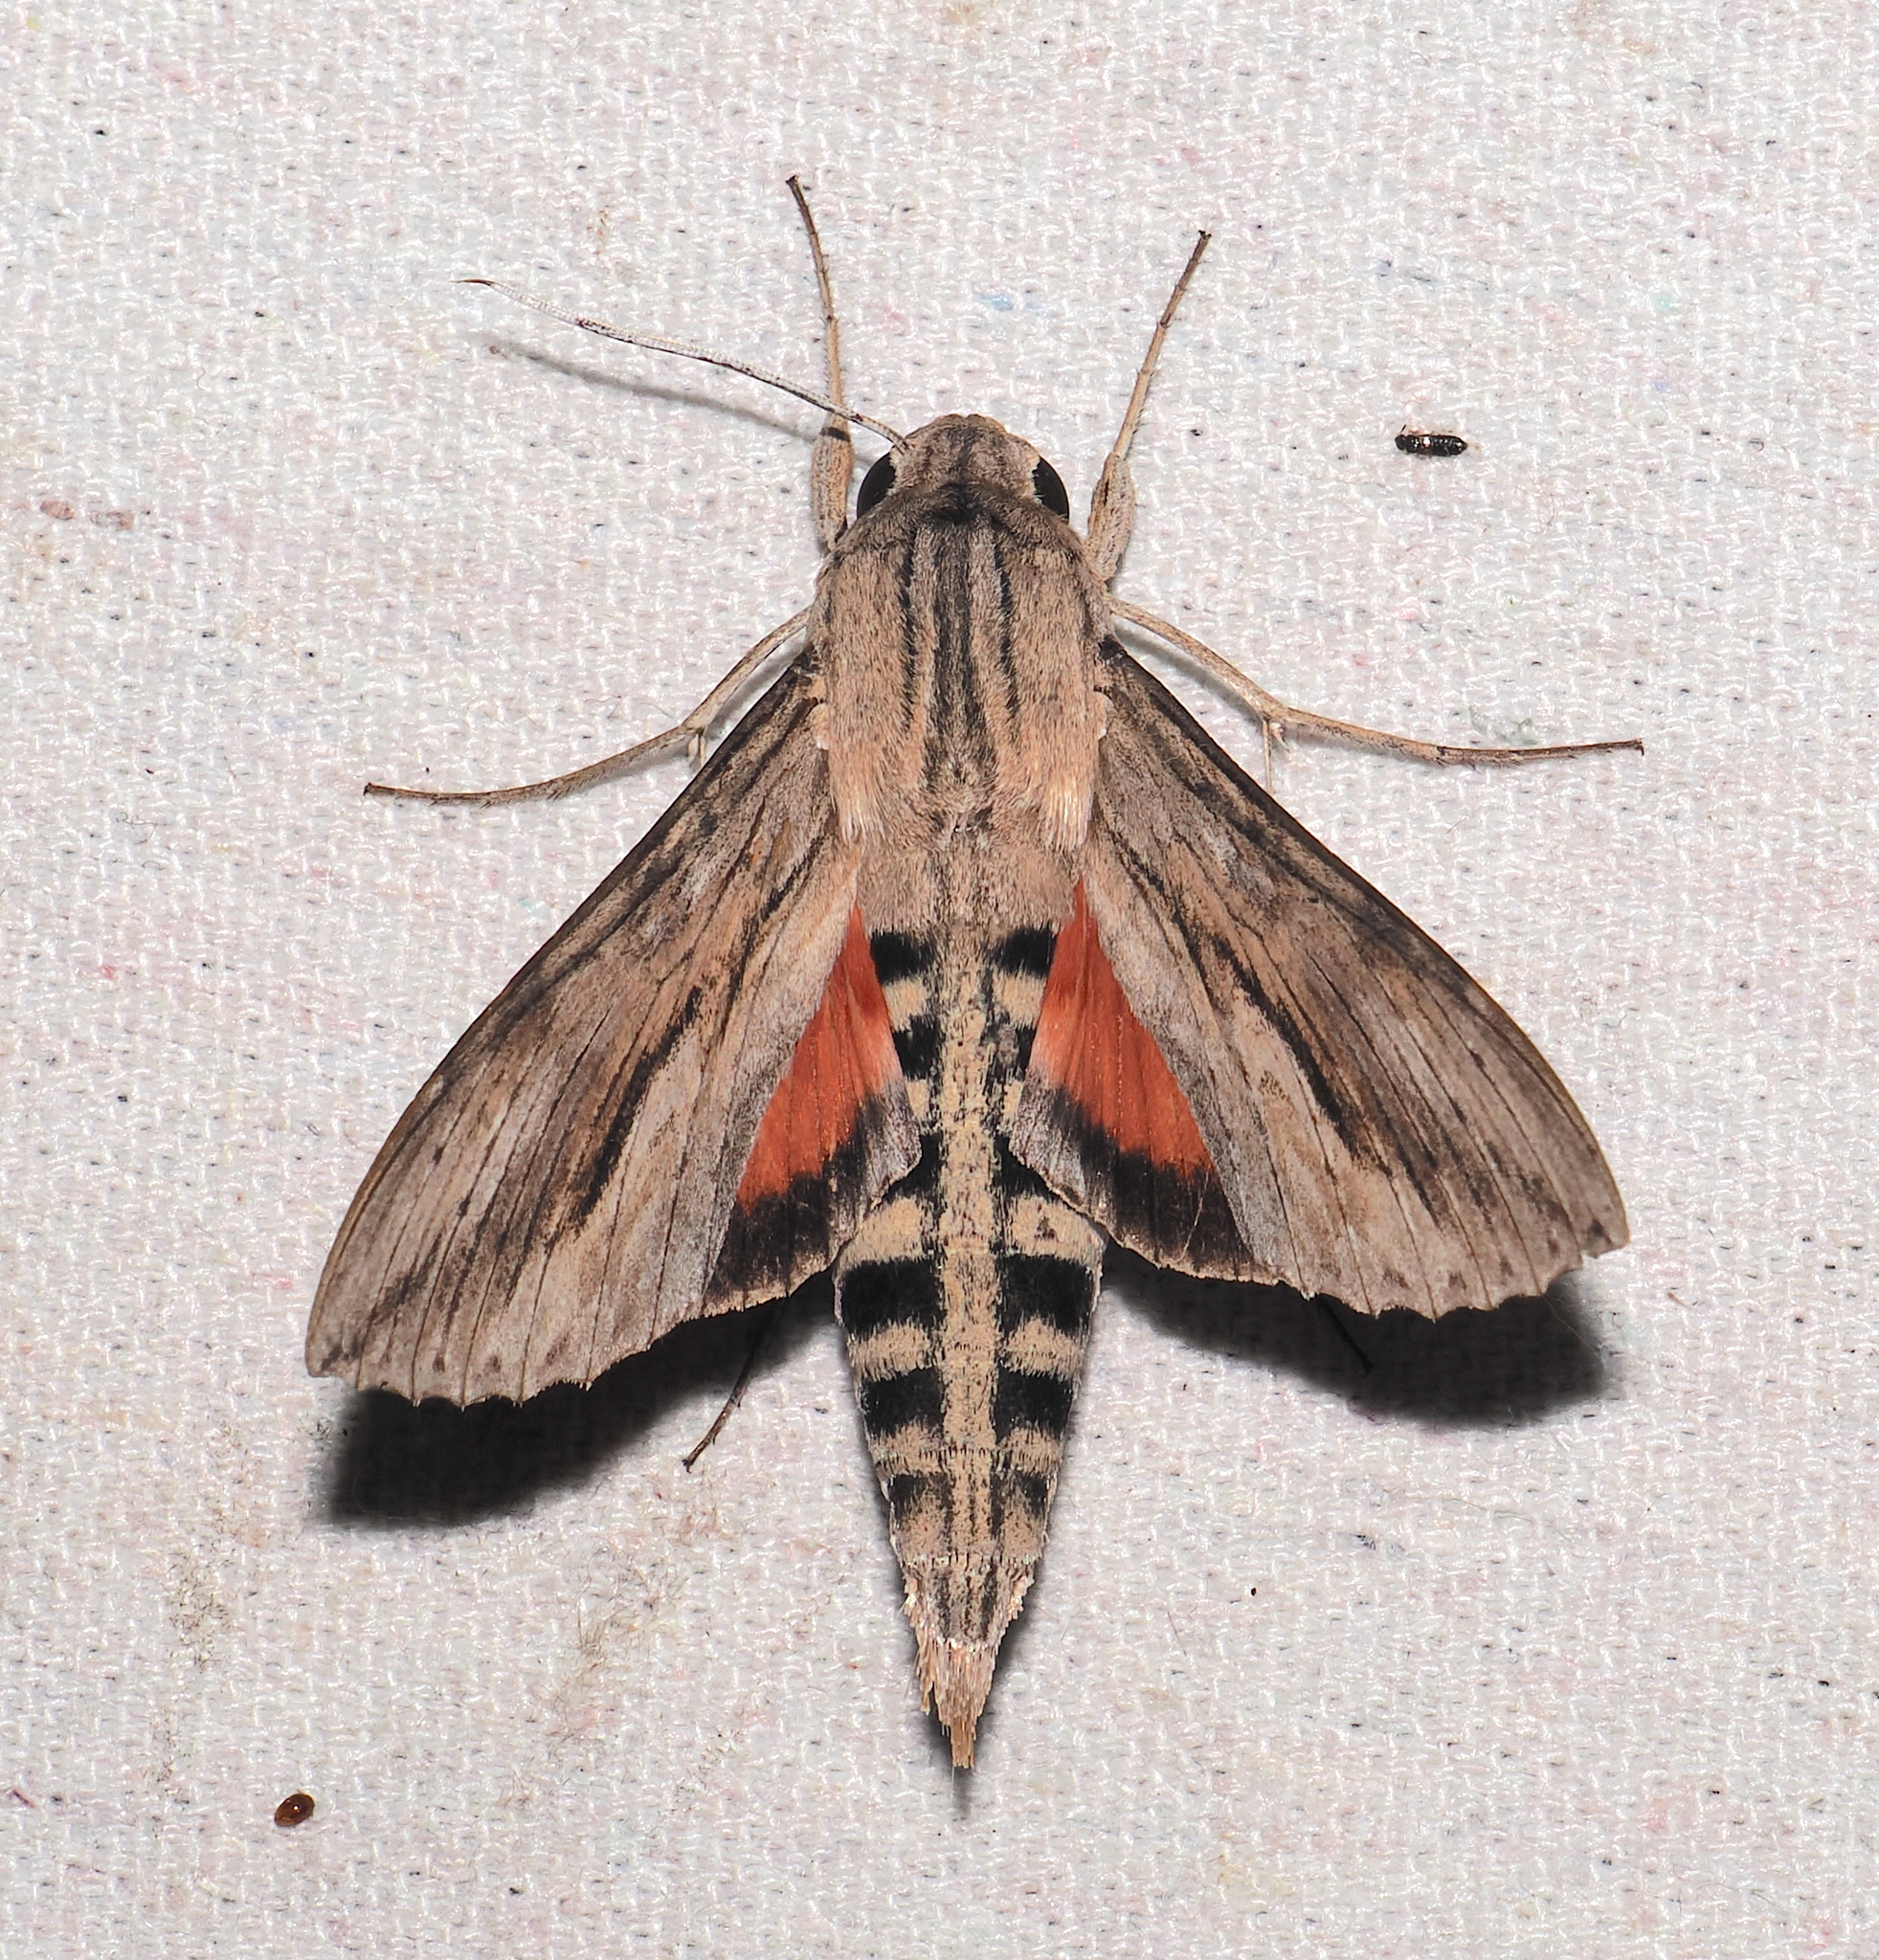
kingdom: Animalia
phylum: Arthropoda
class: Insecta
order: Lepidoptera
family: Sphingidae
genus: Erinnyis
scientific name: Erinnyis ello
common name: Ello sphinx
